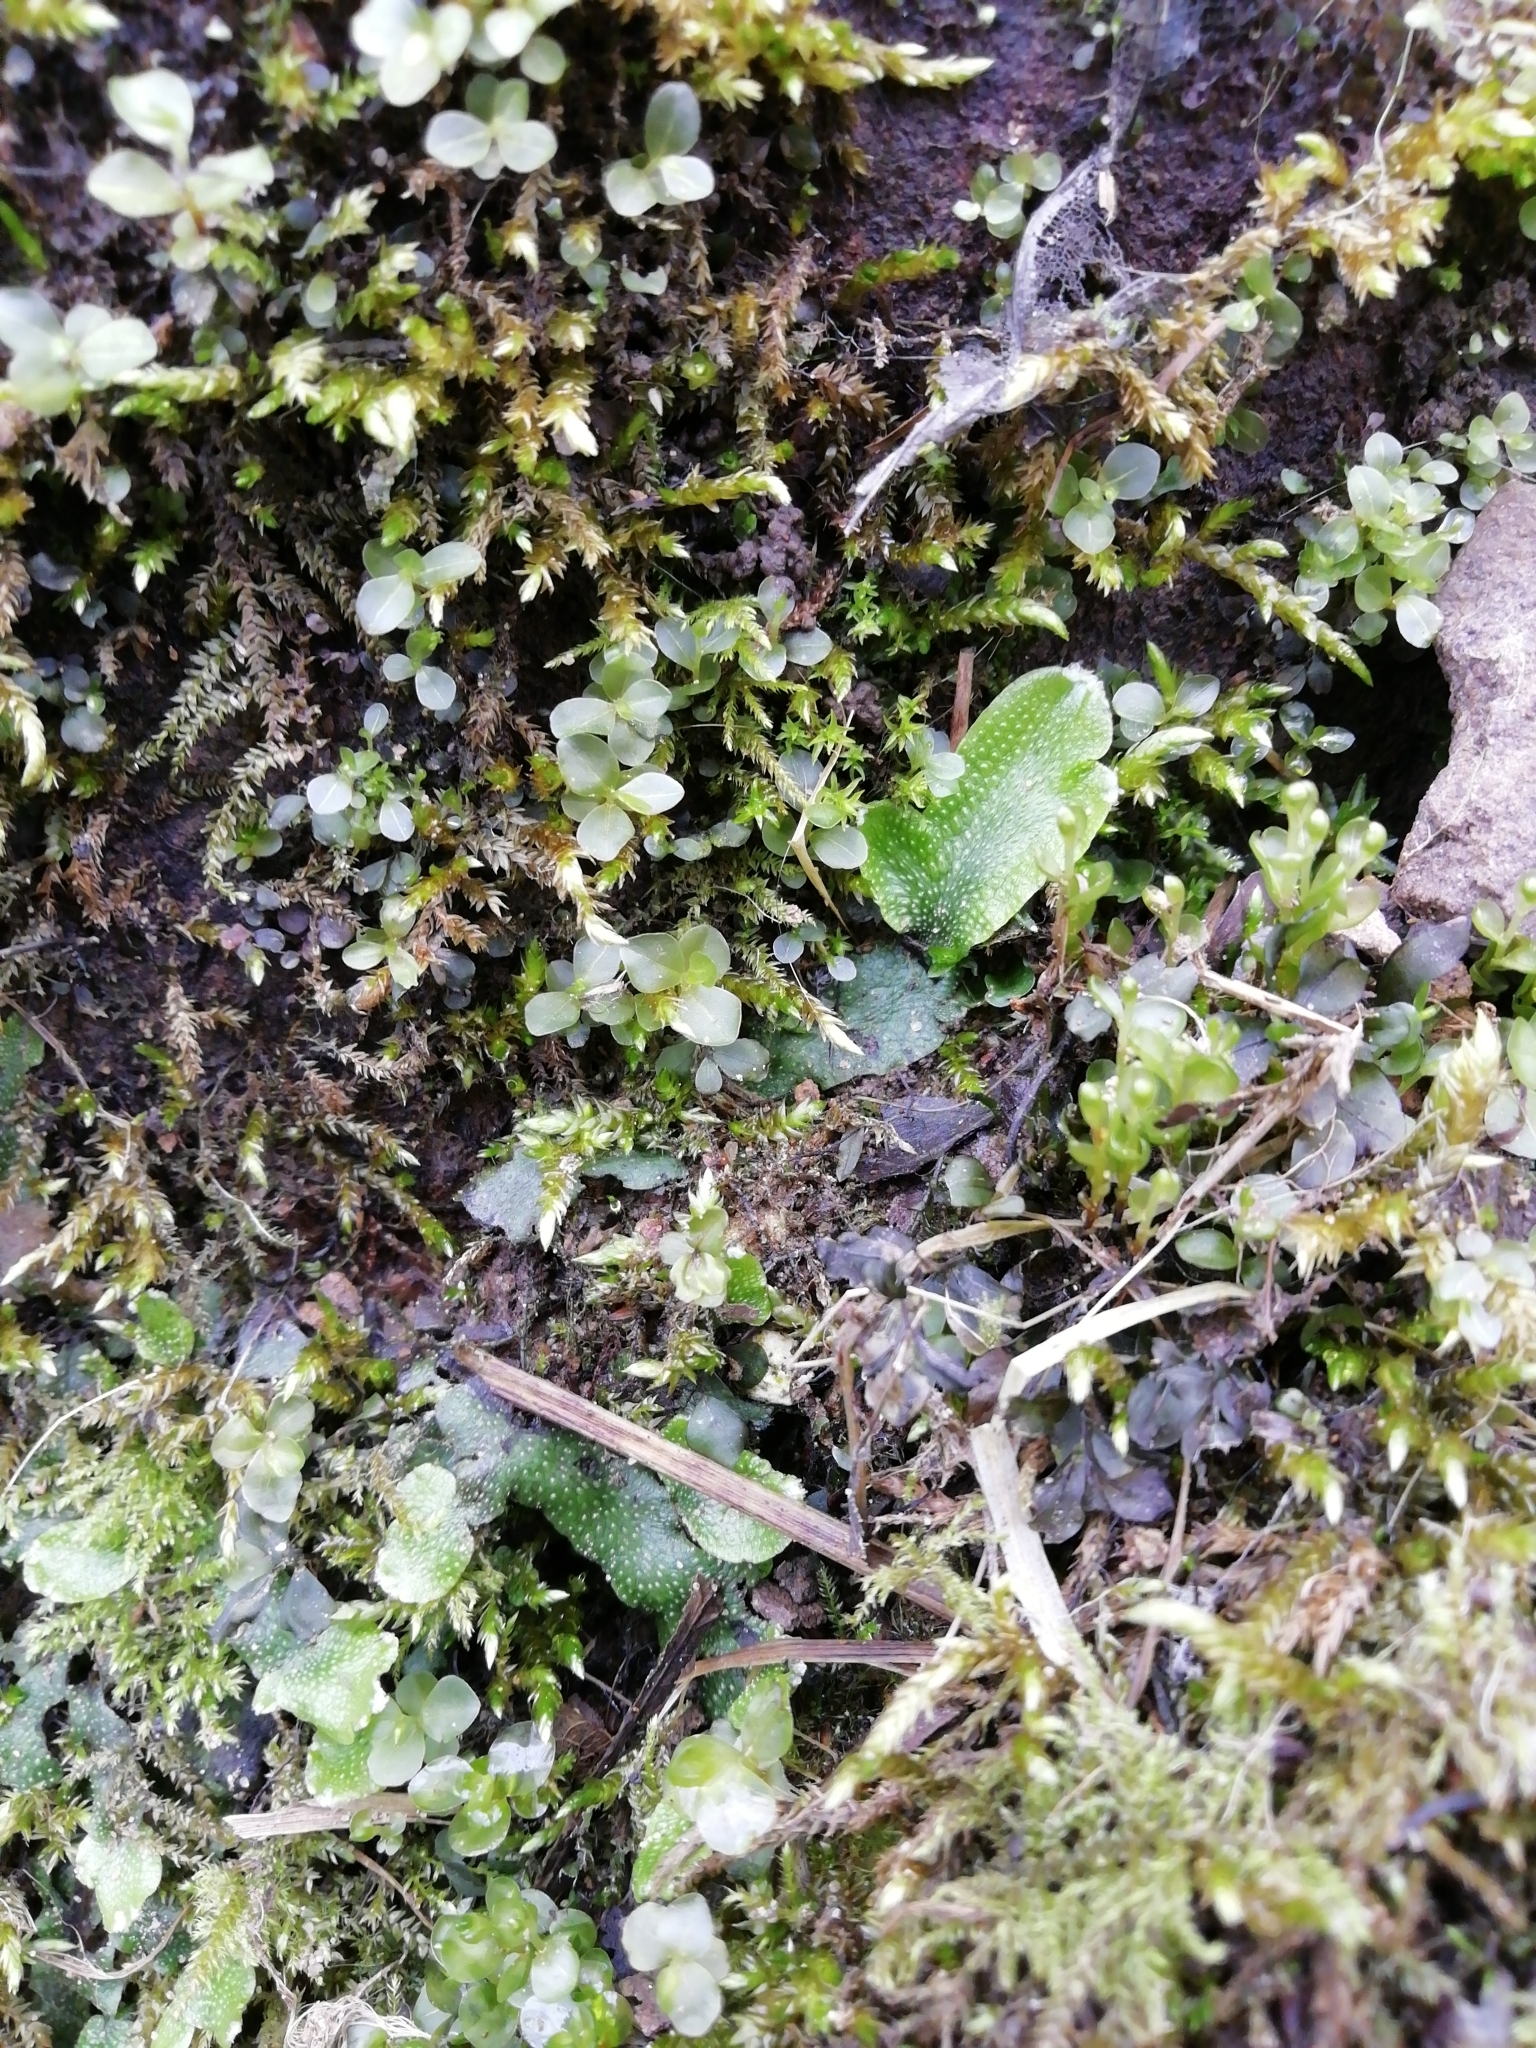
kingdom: Plantae
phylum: Marchantiophyta
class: Marchantiopsida
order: Marchantiales
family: Conocephalaceae
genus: Conocephalum
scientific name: Conocephalum conicum
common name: Great scented liverwort
